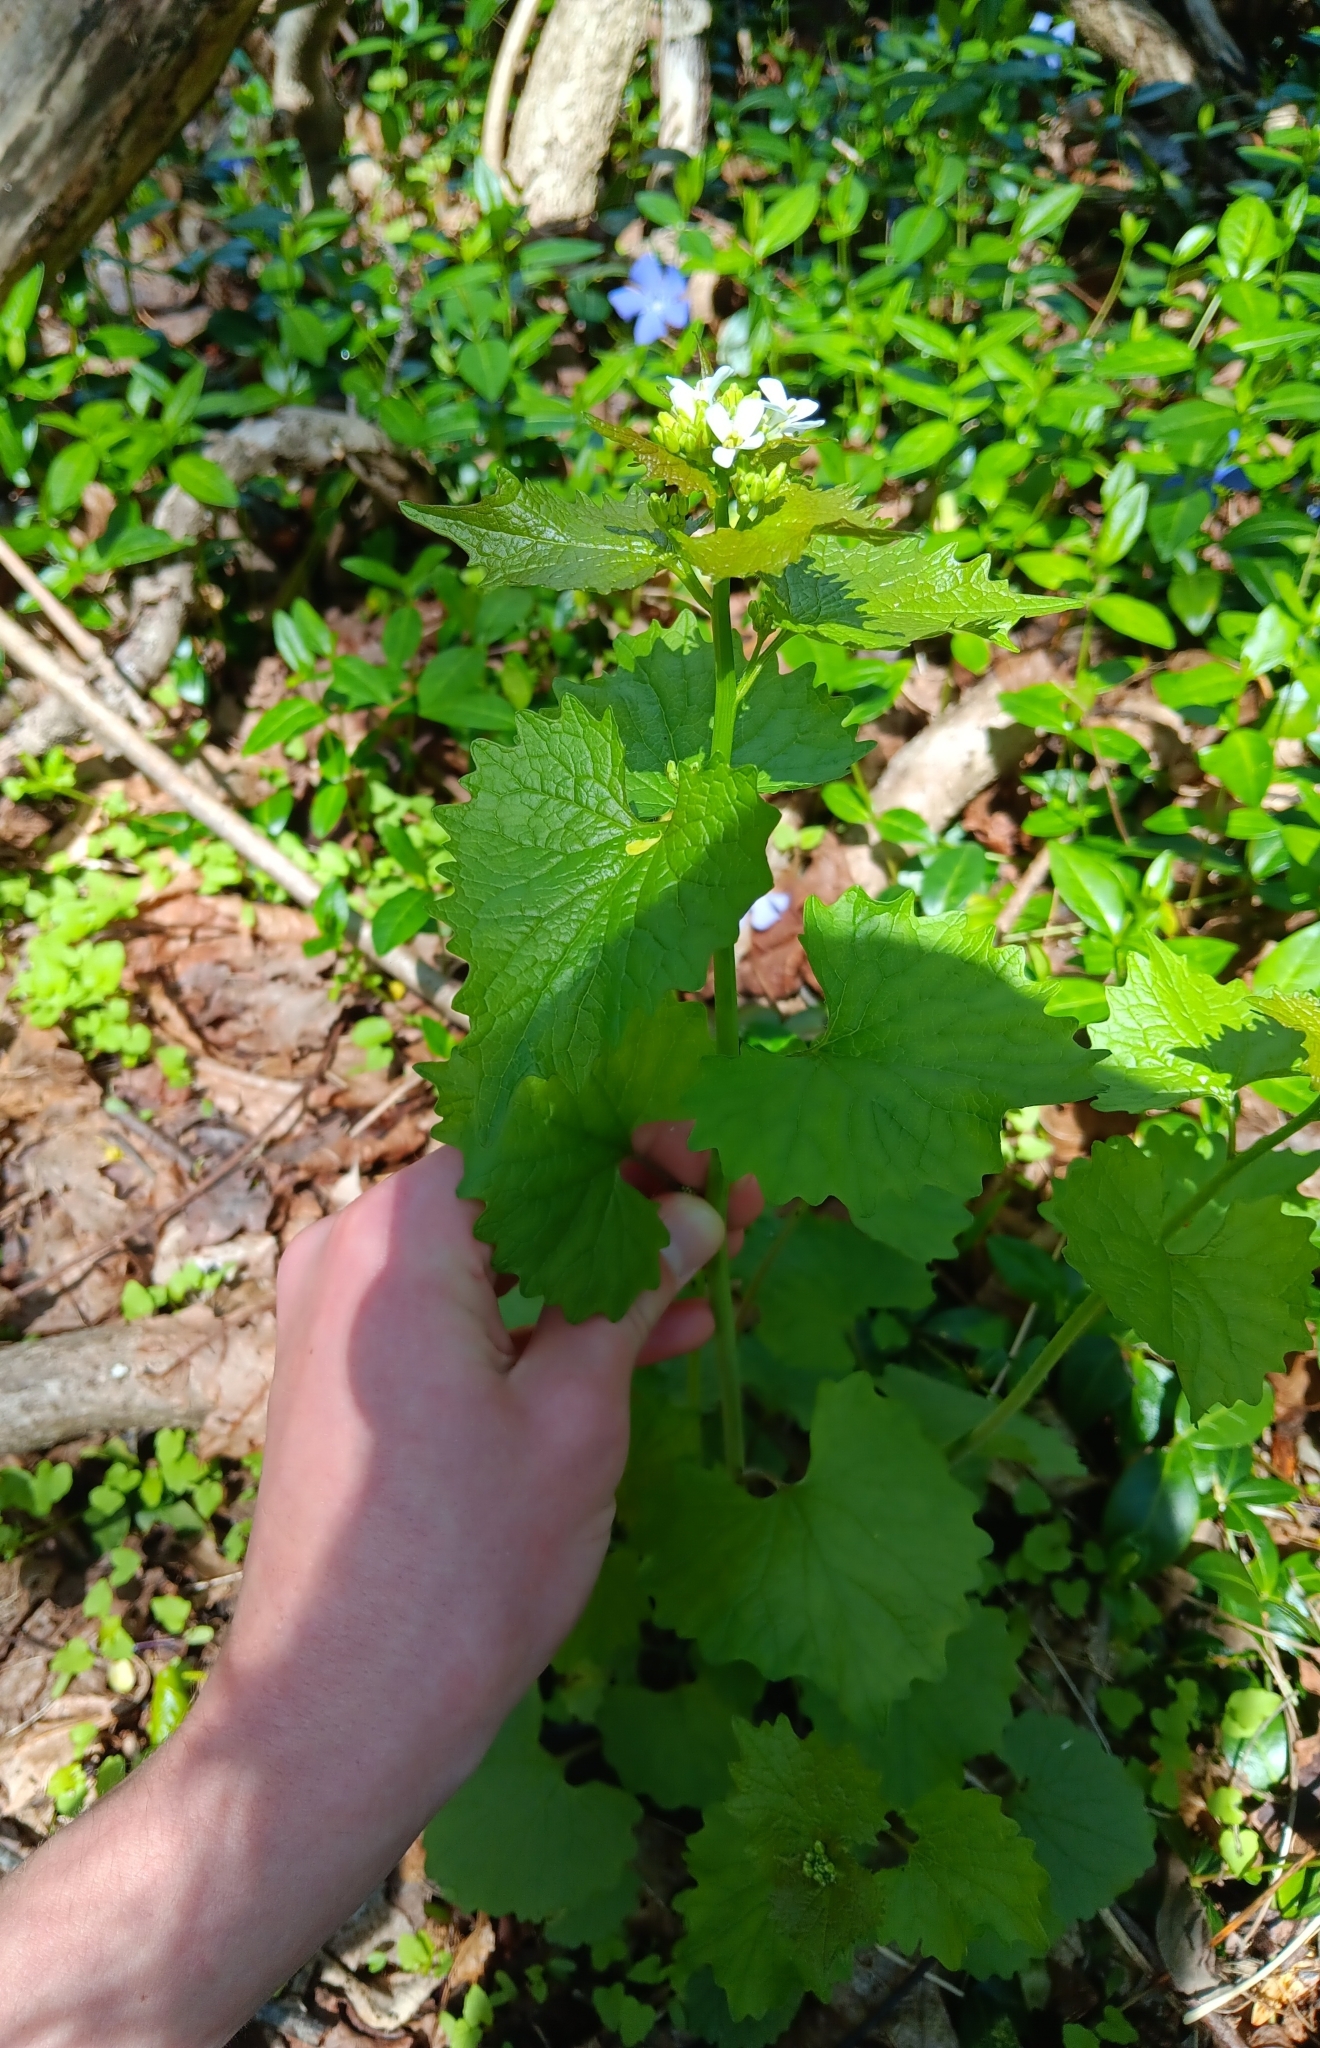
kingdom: Plantae
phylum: Tracheophyta
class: Magnoliopsida
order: Brassicales
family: Brassicaceae
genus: Alliaria
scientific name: Alliaria petiolata
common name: Garlic mustard
